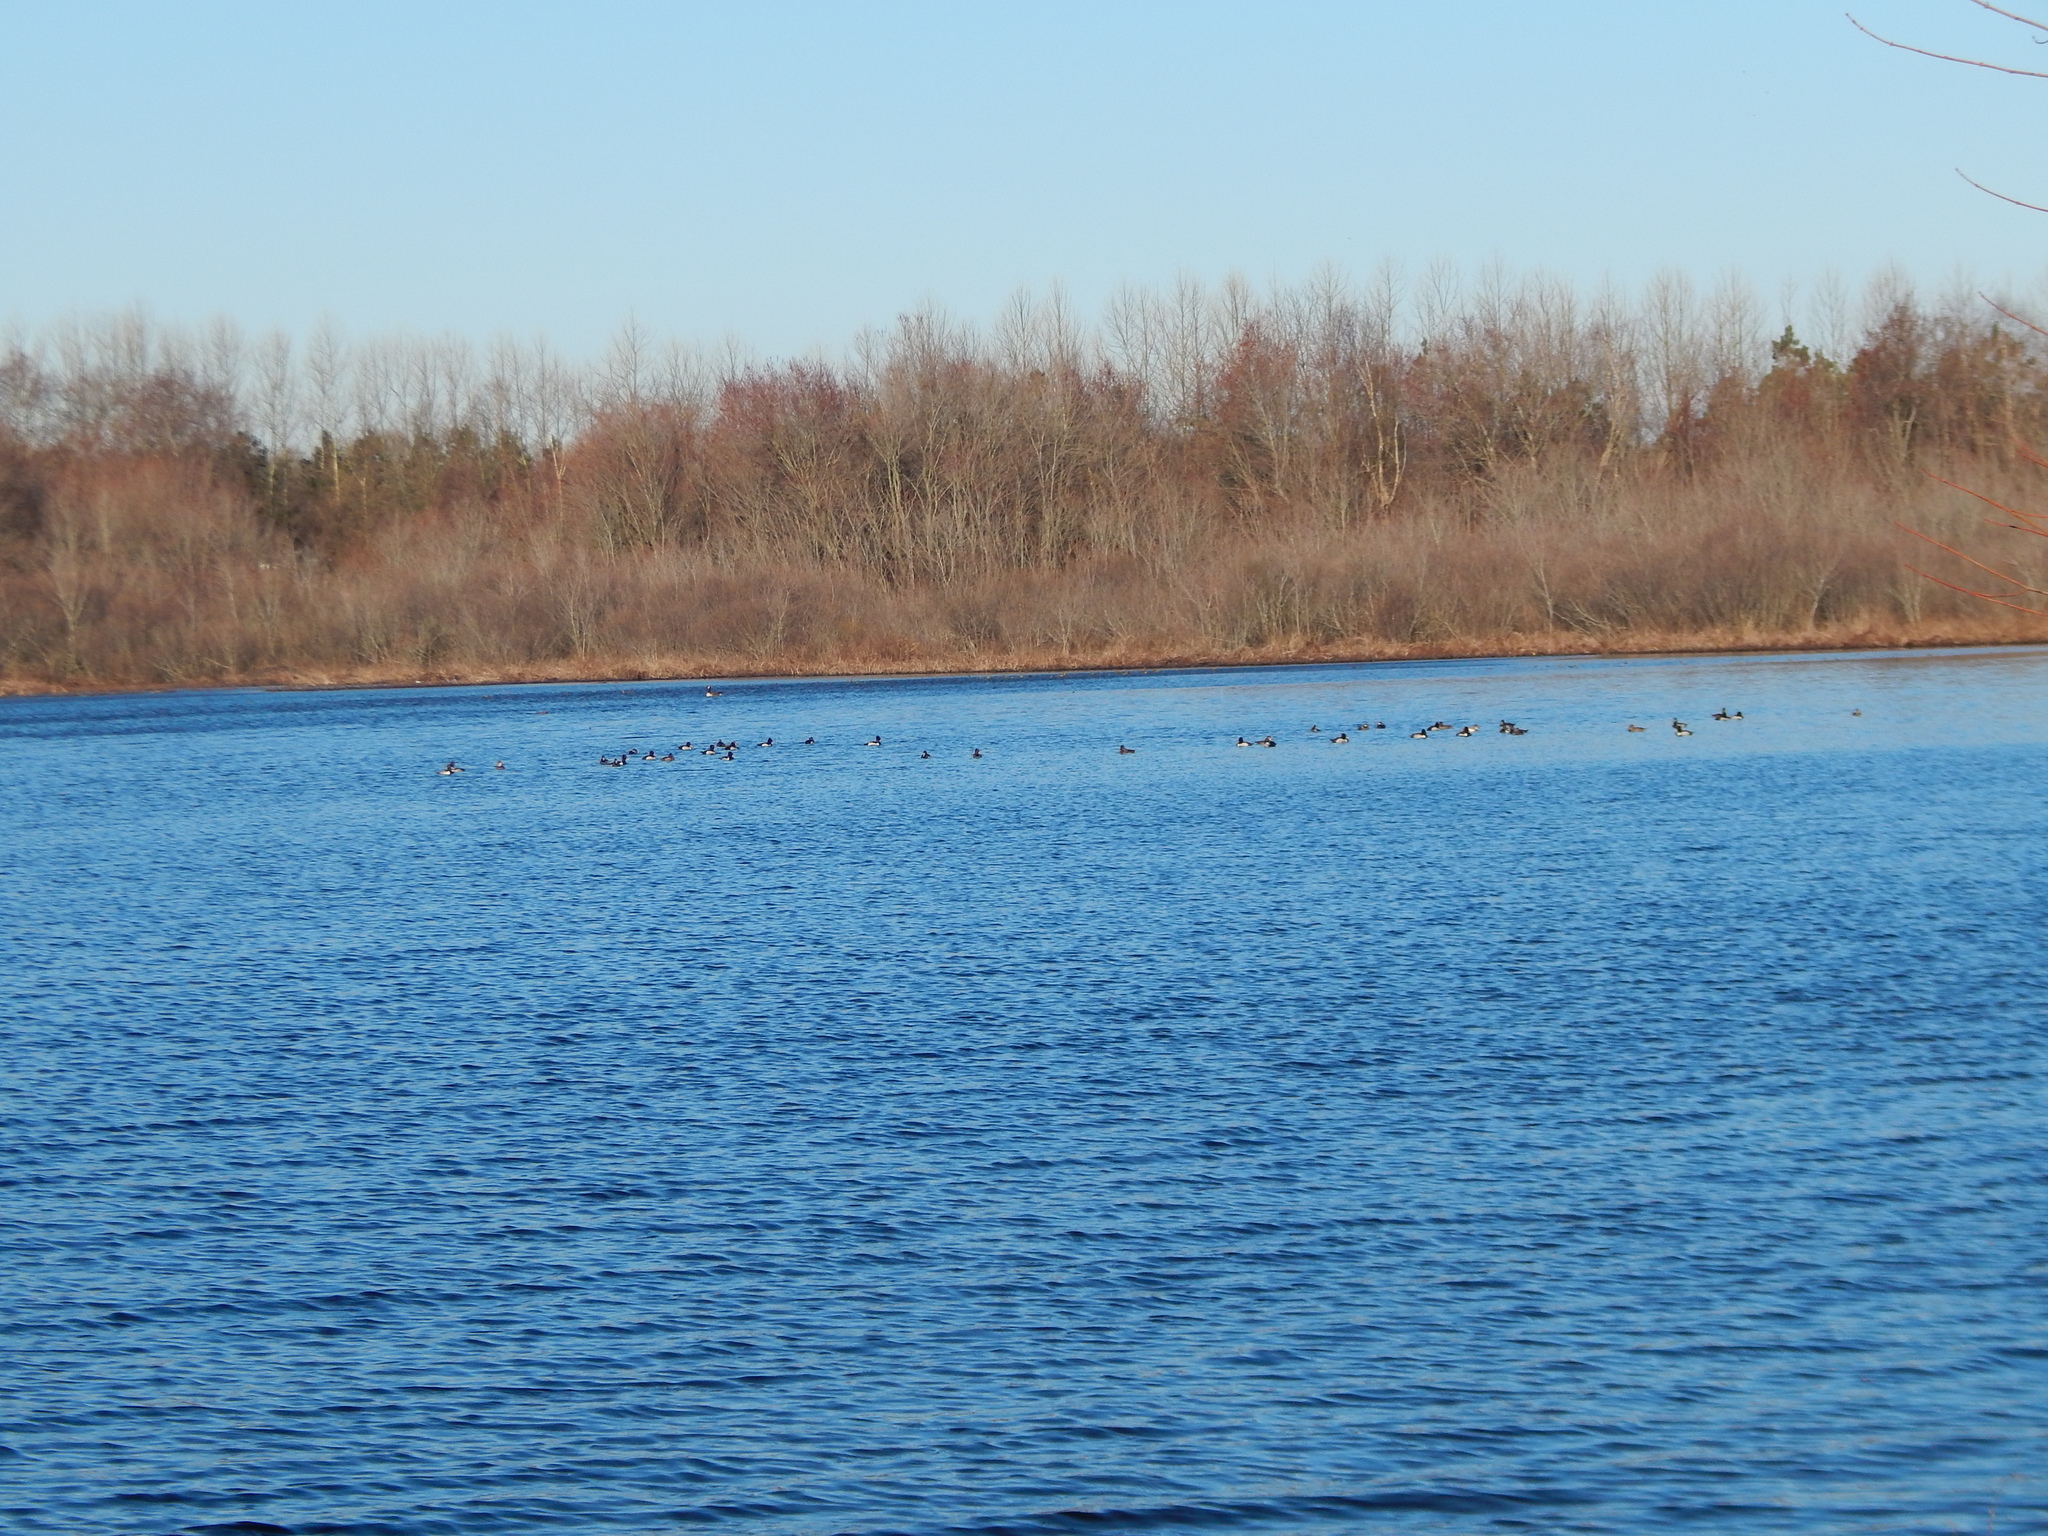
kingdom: Animalia
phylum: Chordata
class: Aves
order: Anseriformes
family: Anatidae
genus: Aythya
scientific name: Aythya collaris
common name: Ring-necked duck
